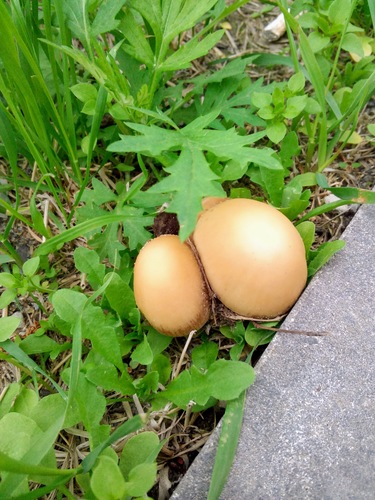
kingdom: Fungi
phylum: Basidiomycota
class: Agaricomycetes
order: Agaricales
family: Psathyrellaceae
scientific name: Psathyrellaceae
